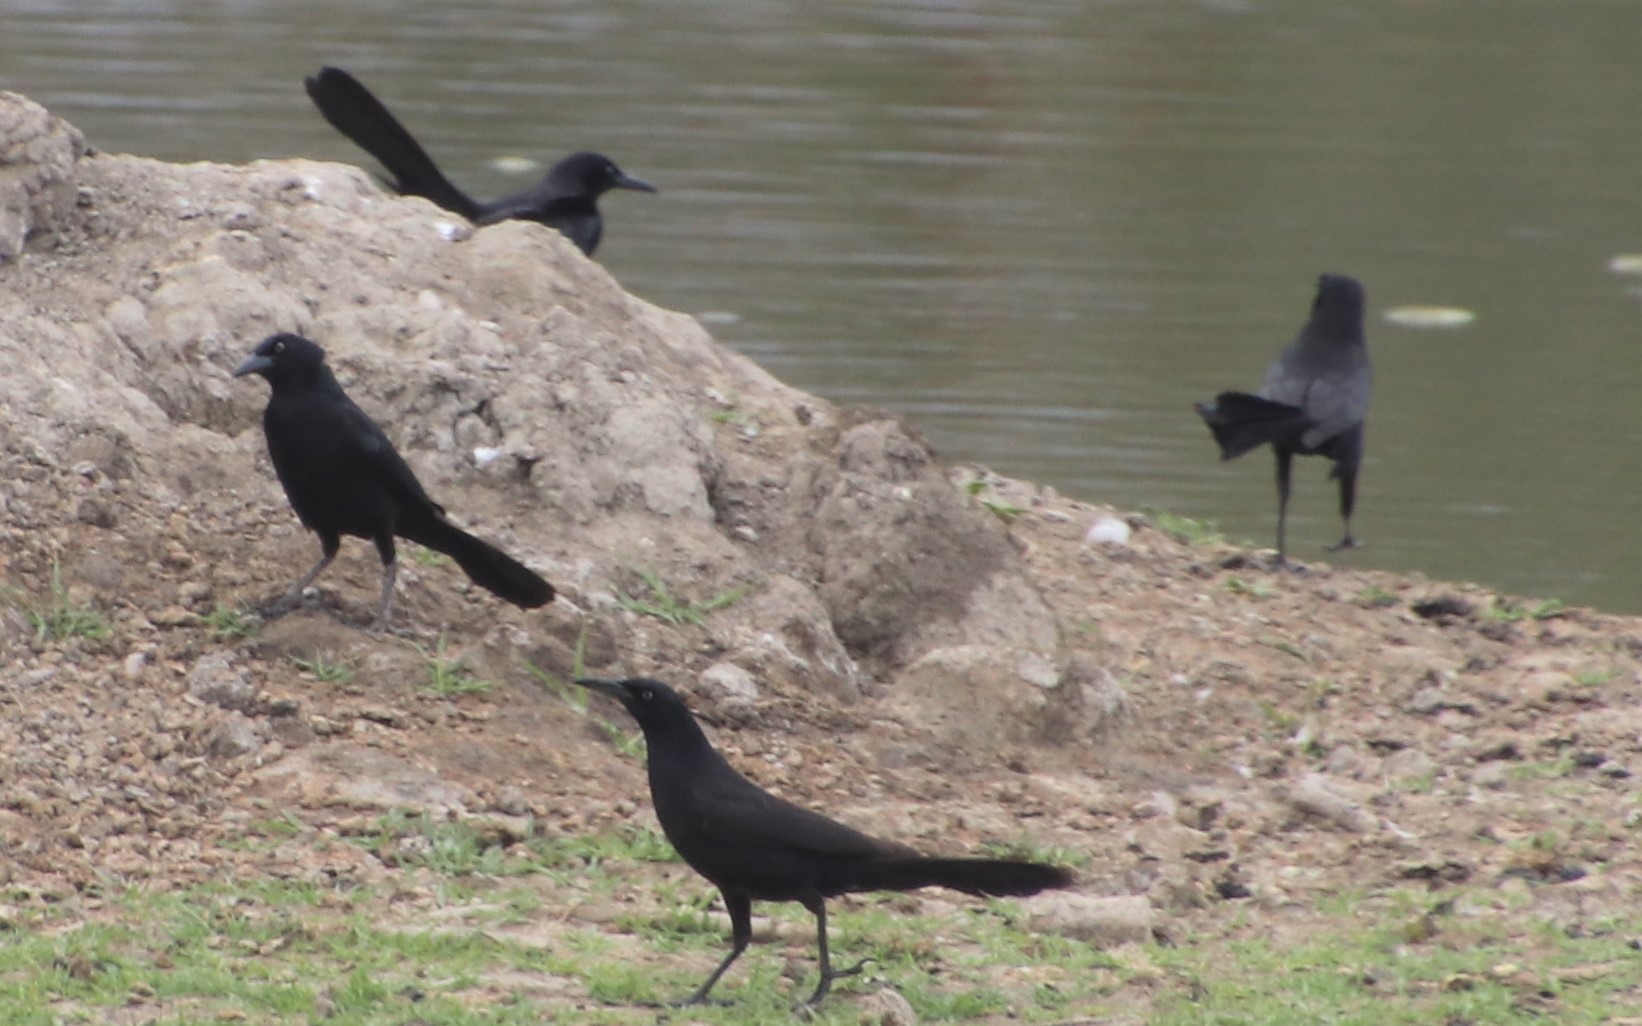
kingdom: Animalia
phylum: Chordata
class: Aves
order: Passeriformes
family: Icteridae
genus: Quiscalus
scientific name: Quiscalus mexicanus
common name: Great-tailed grackle
